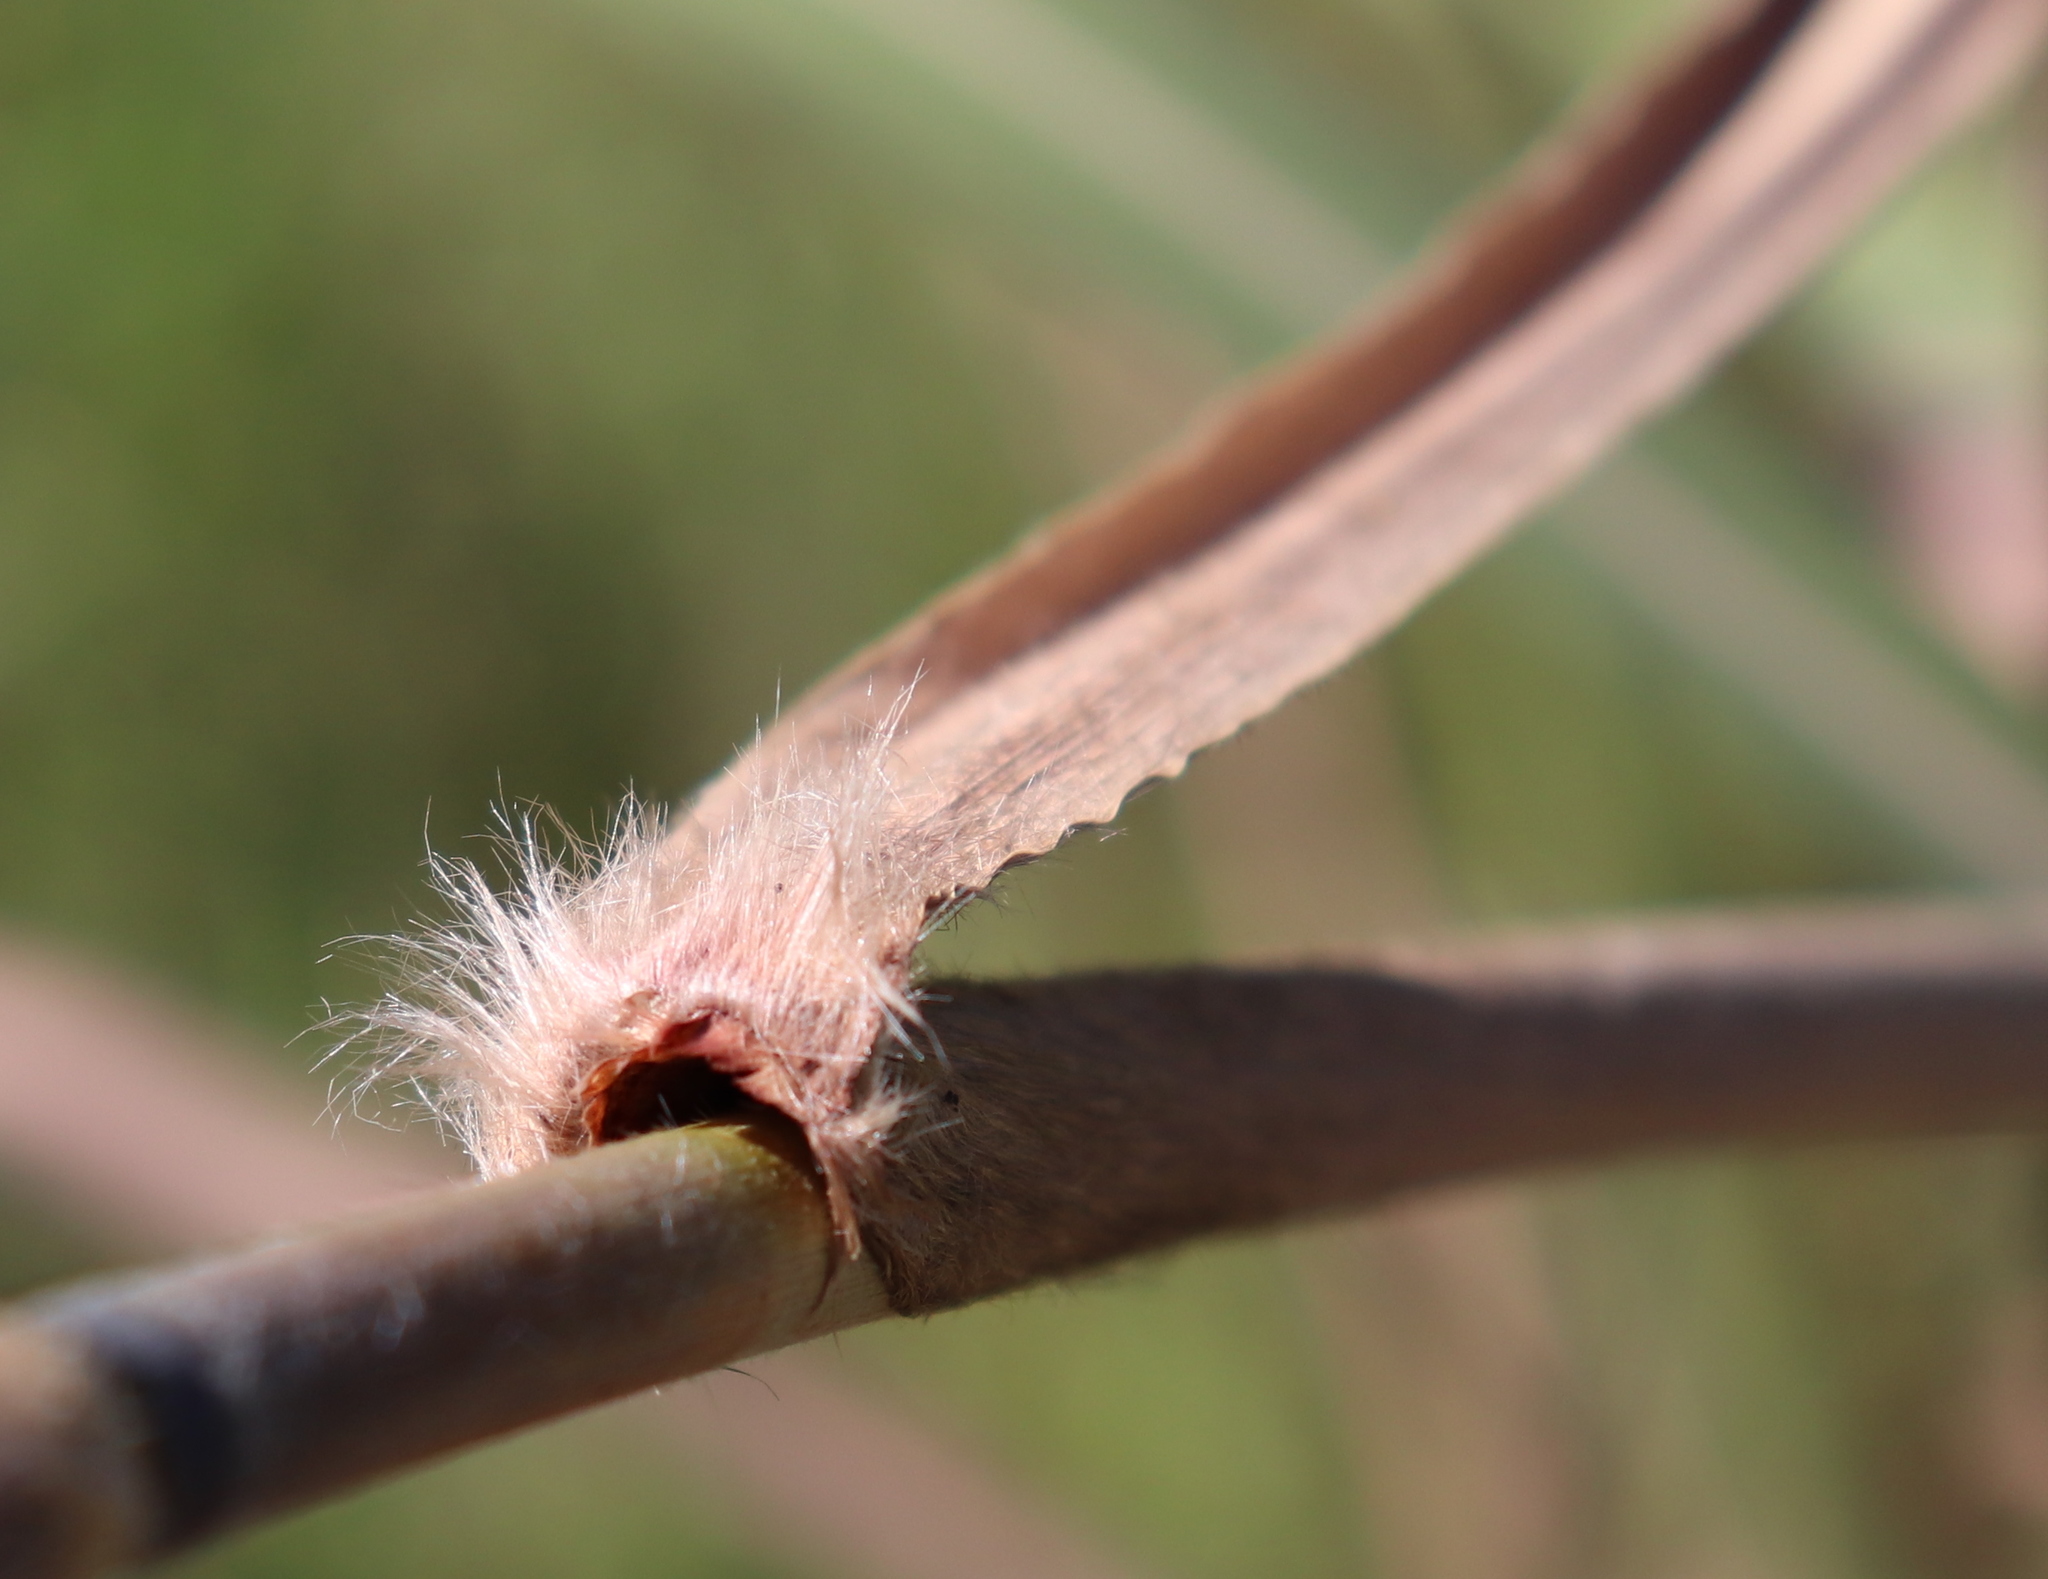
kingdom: Plantae
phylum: Tracheophyta
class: Liliopsida
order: Poales
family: Poaceae
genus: Erianthus
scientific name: Erianthus giganteus
